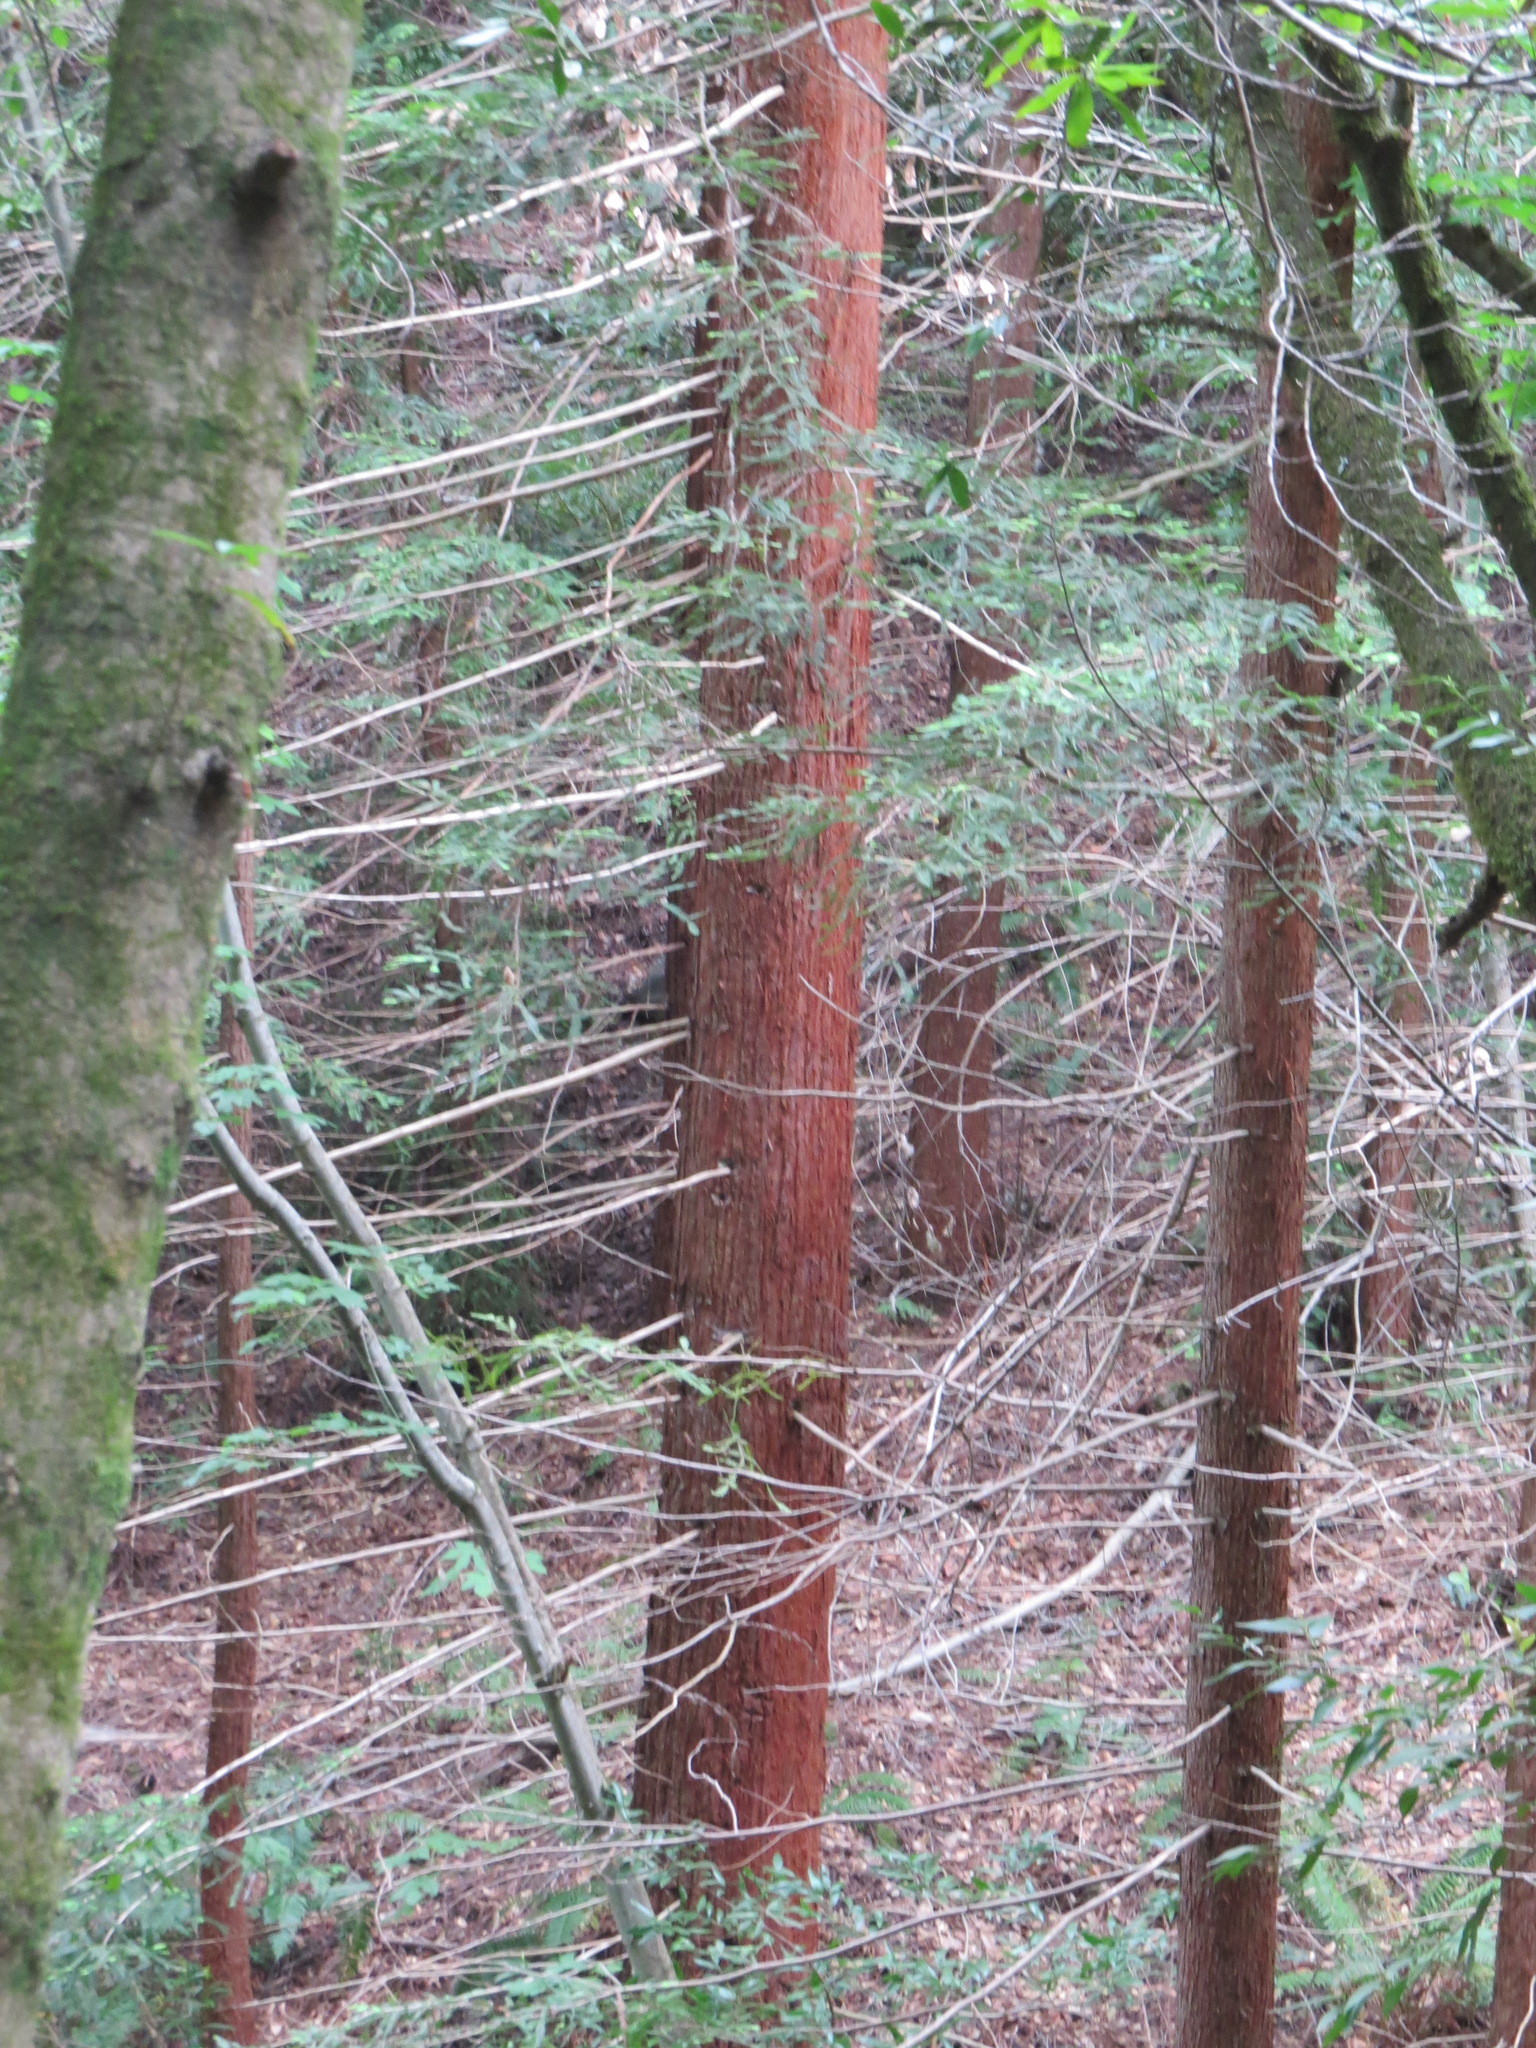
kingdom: Plantae
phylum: Tracheophyta
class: Pinopsida
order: Pinales
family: Cupressaceae
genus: Sequoia
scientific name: Sequoia sempervirens
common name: Coast redwood
